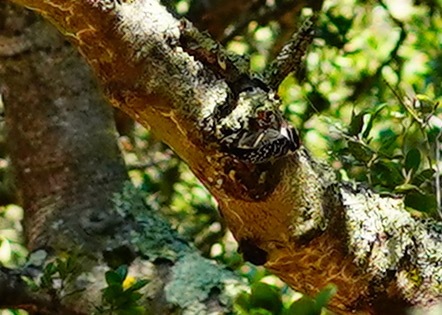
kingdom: Animalia
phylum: Chordata
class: Aves
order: Piciformes
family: Picidae
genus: Dryobates
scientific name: Dryobates nuttallii
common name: Nuttall's woodpecker
